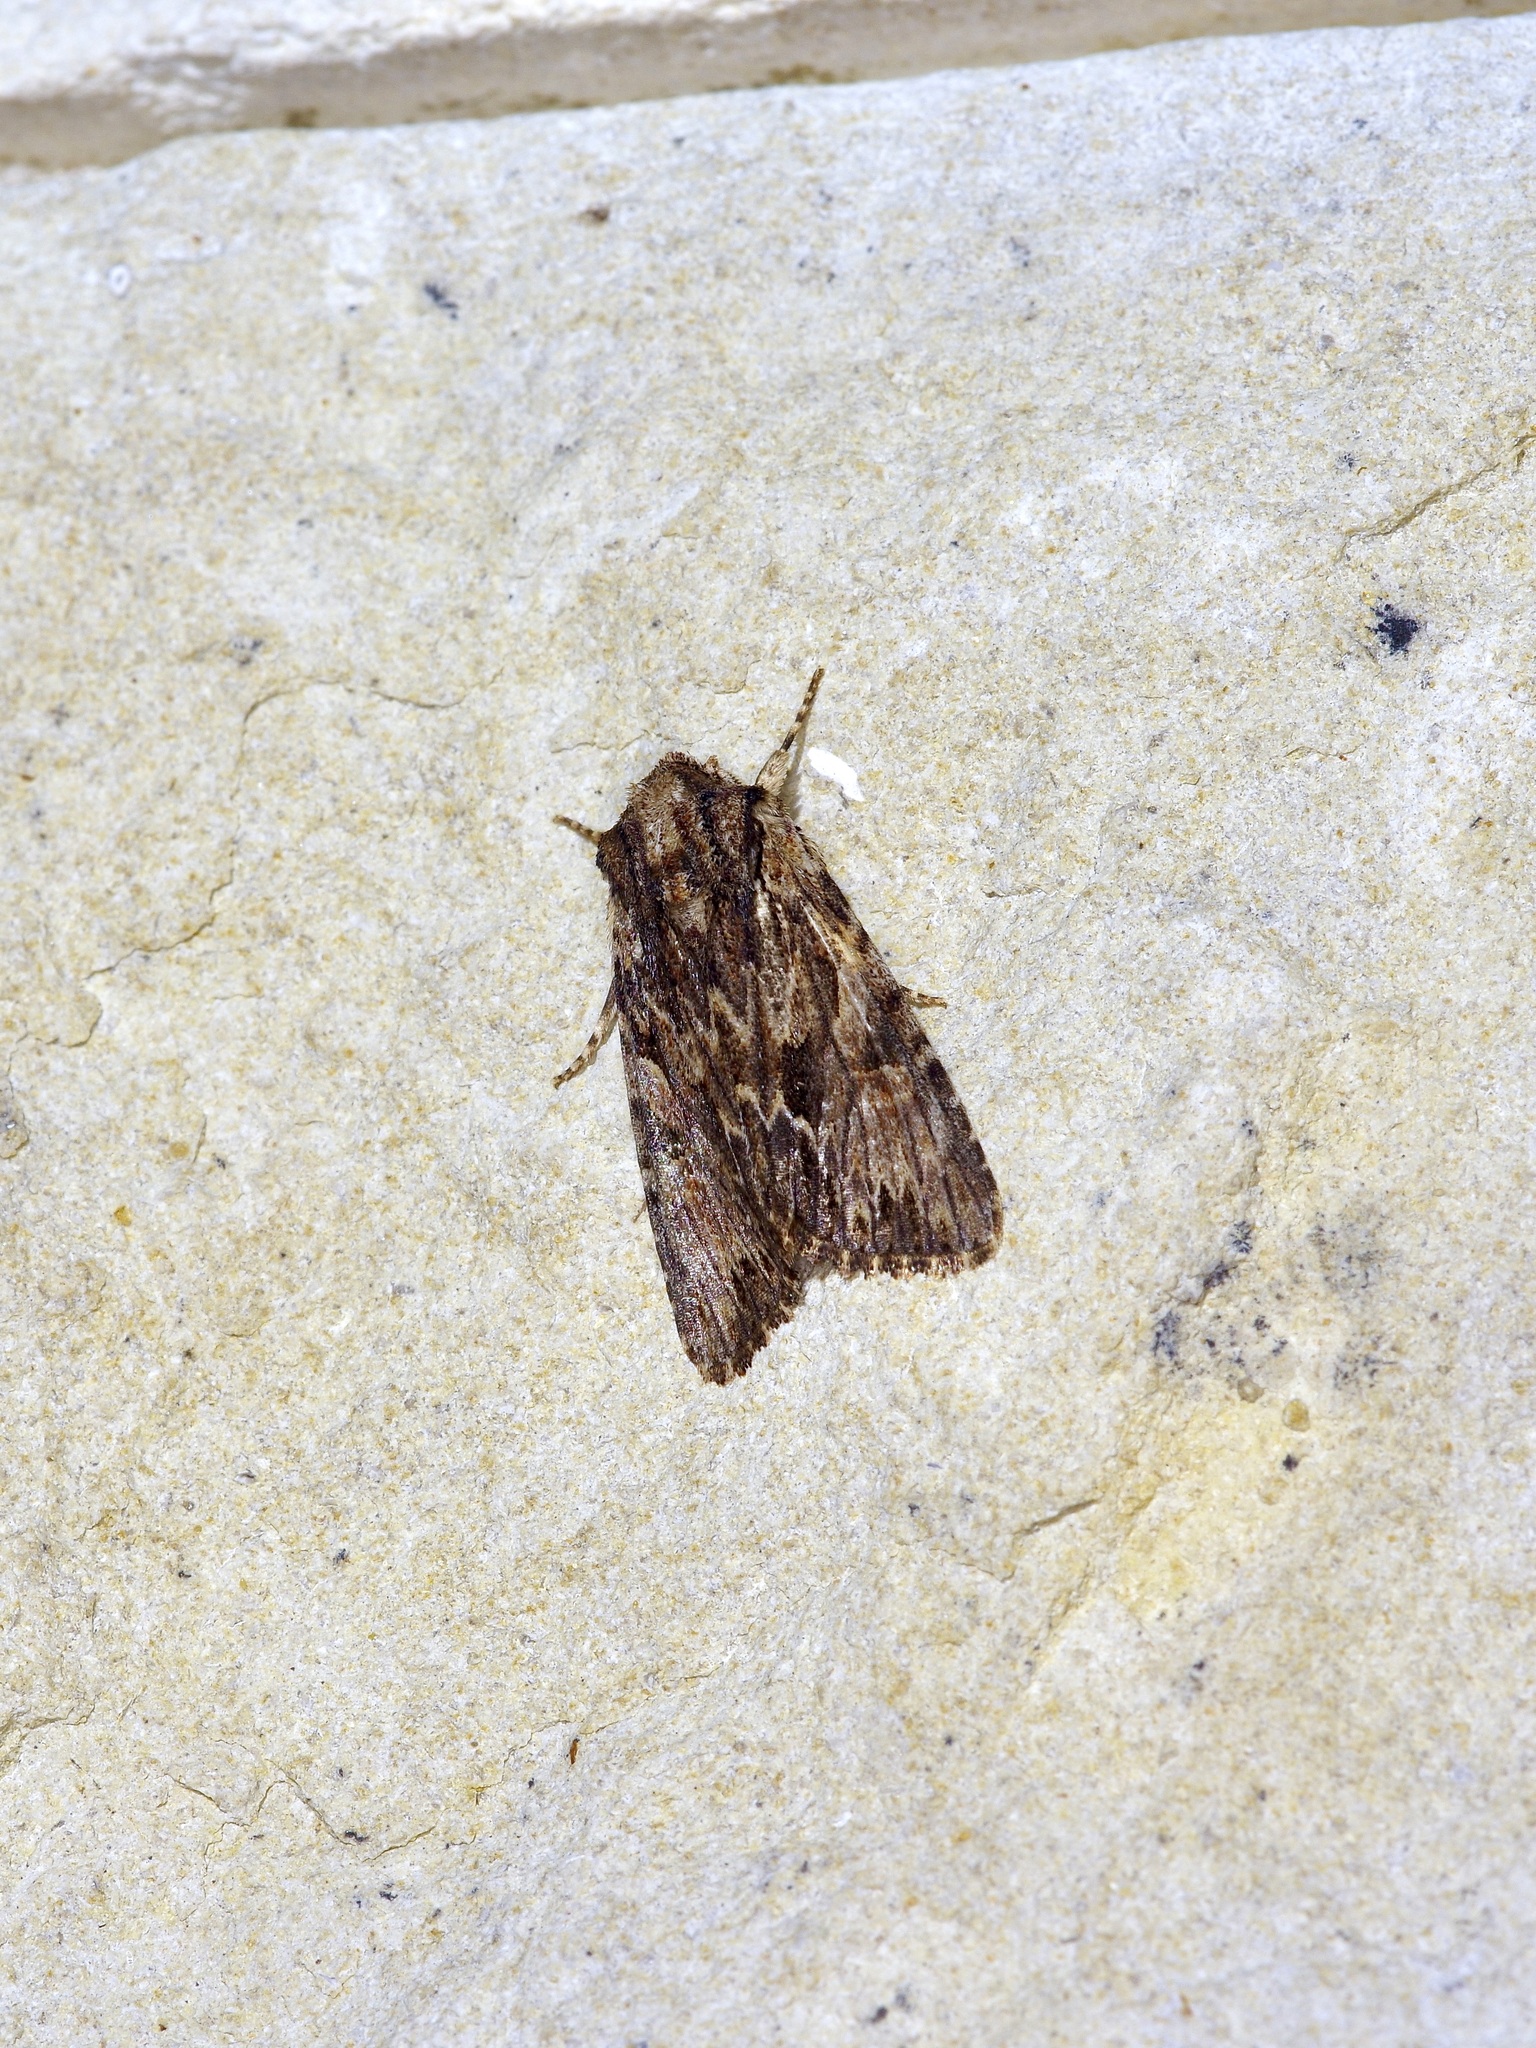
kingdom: Animalia
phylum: Arthropoda
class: Insecta
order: Lepidoptera
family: Noctuidae
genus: Achatia
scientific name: Achatia mucens
